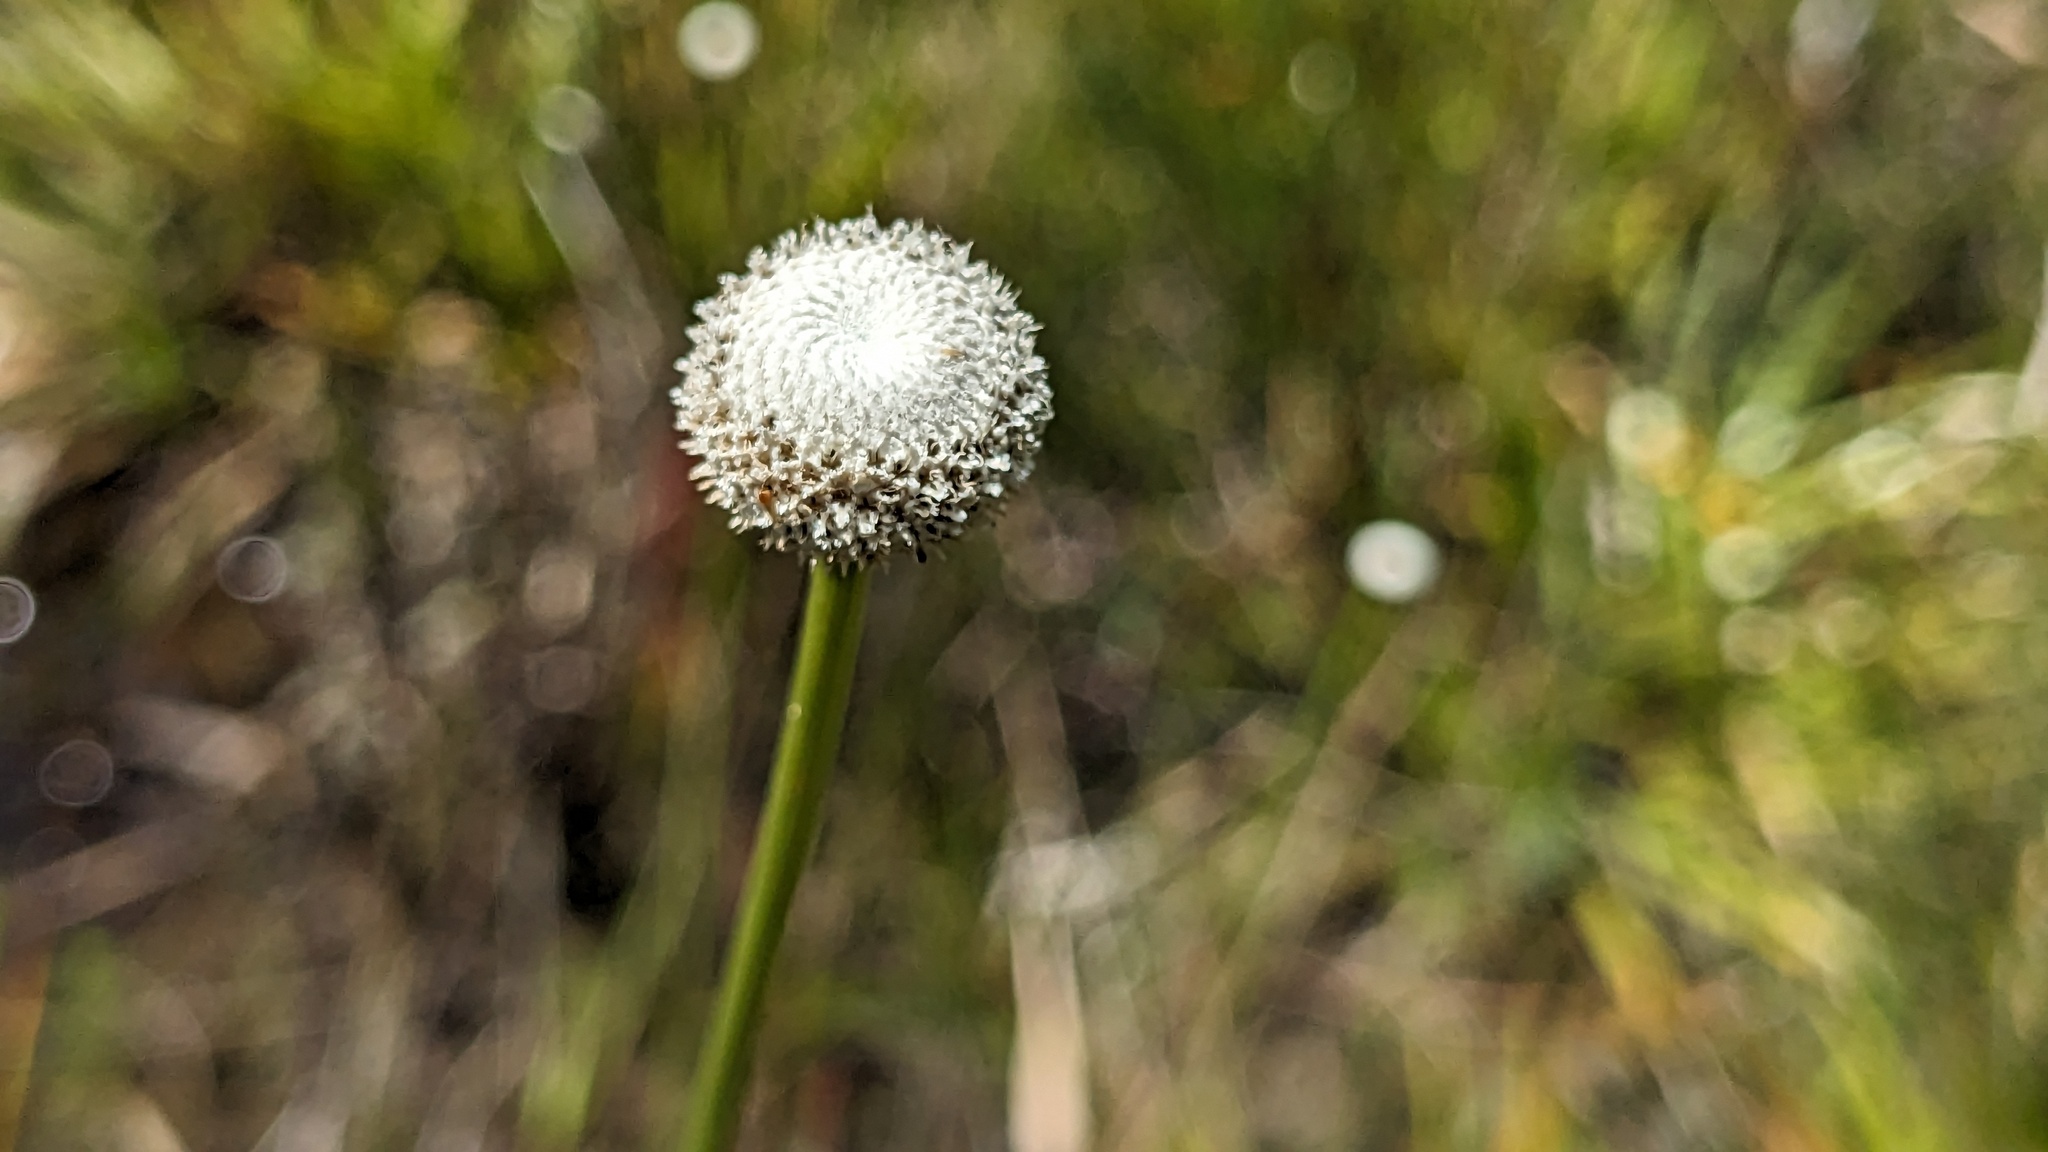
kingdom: Plantae
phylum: Tracheophyta
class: Liliopsida
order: Poales
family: Eriocaulaceae
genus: Eriocaulon
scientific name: Eriocaulon decangulare
